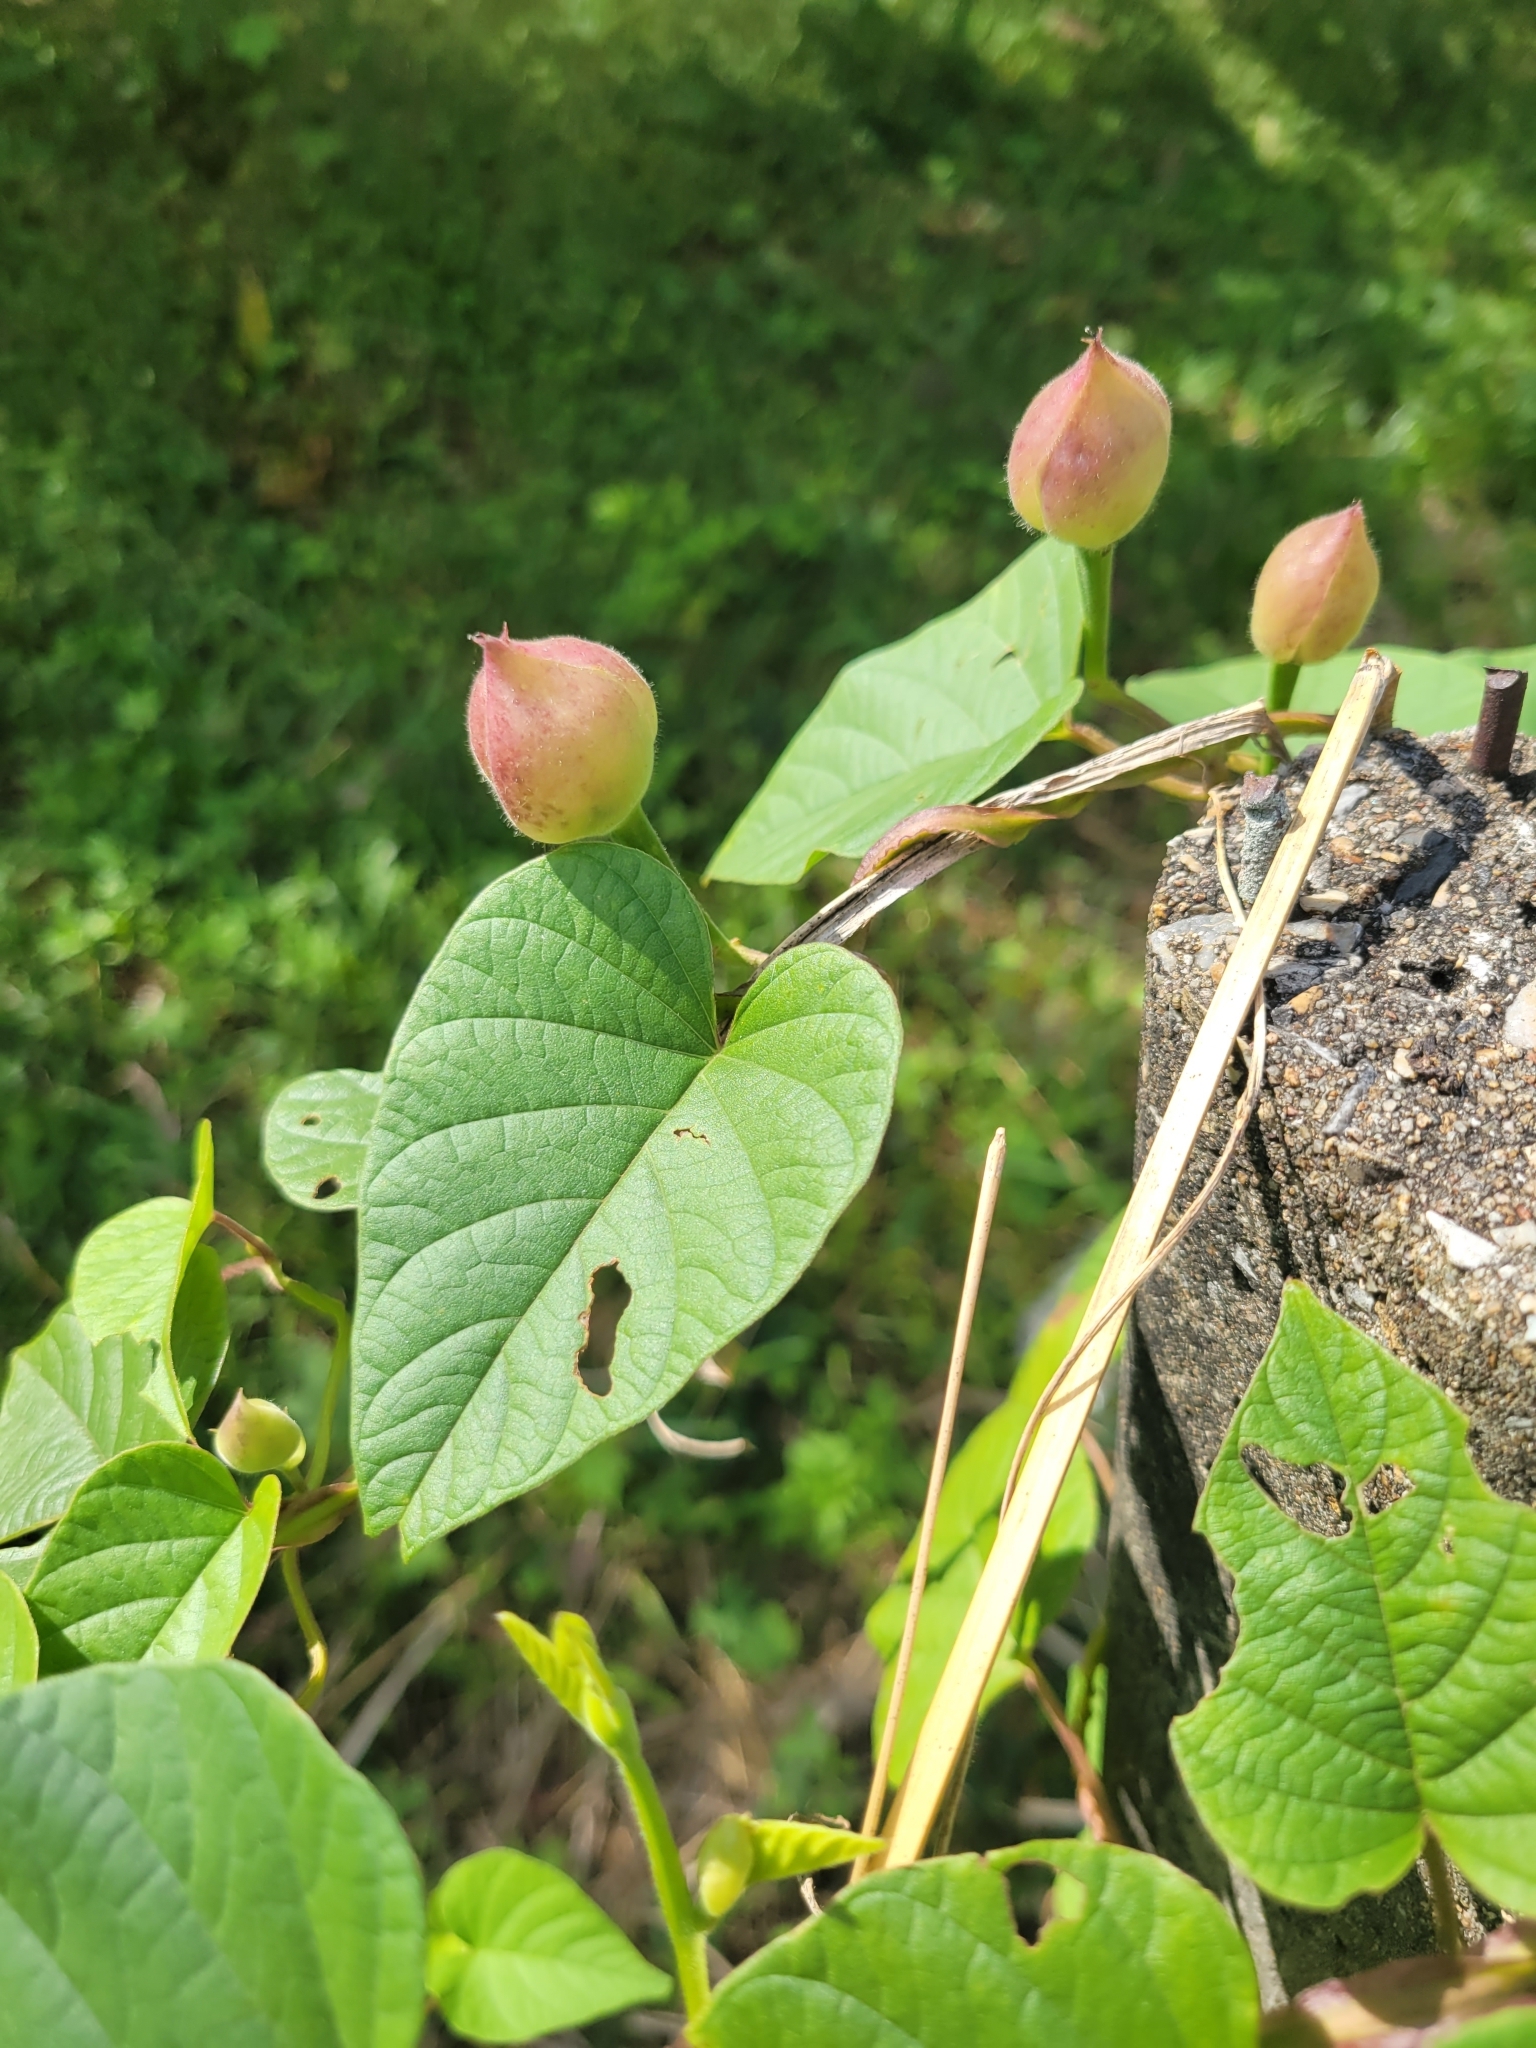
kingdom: Plantae
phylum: Tracheophyta
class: Magnoliopsida
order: Solanales
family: Convolvulaceae
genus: Operculina
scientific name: Operculina turpethum
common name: Transparent wood-rose
